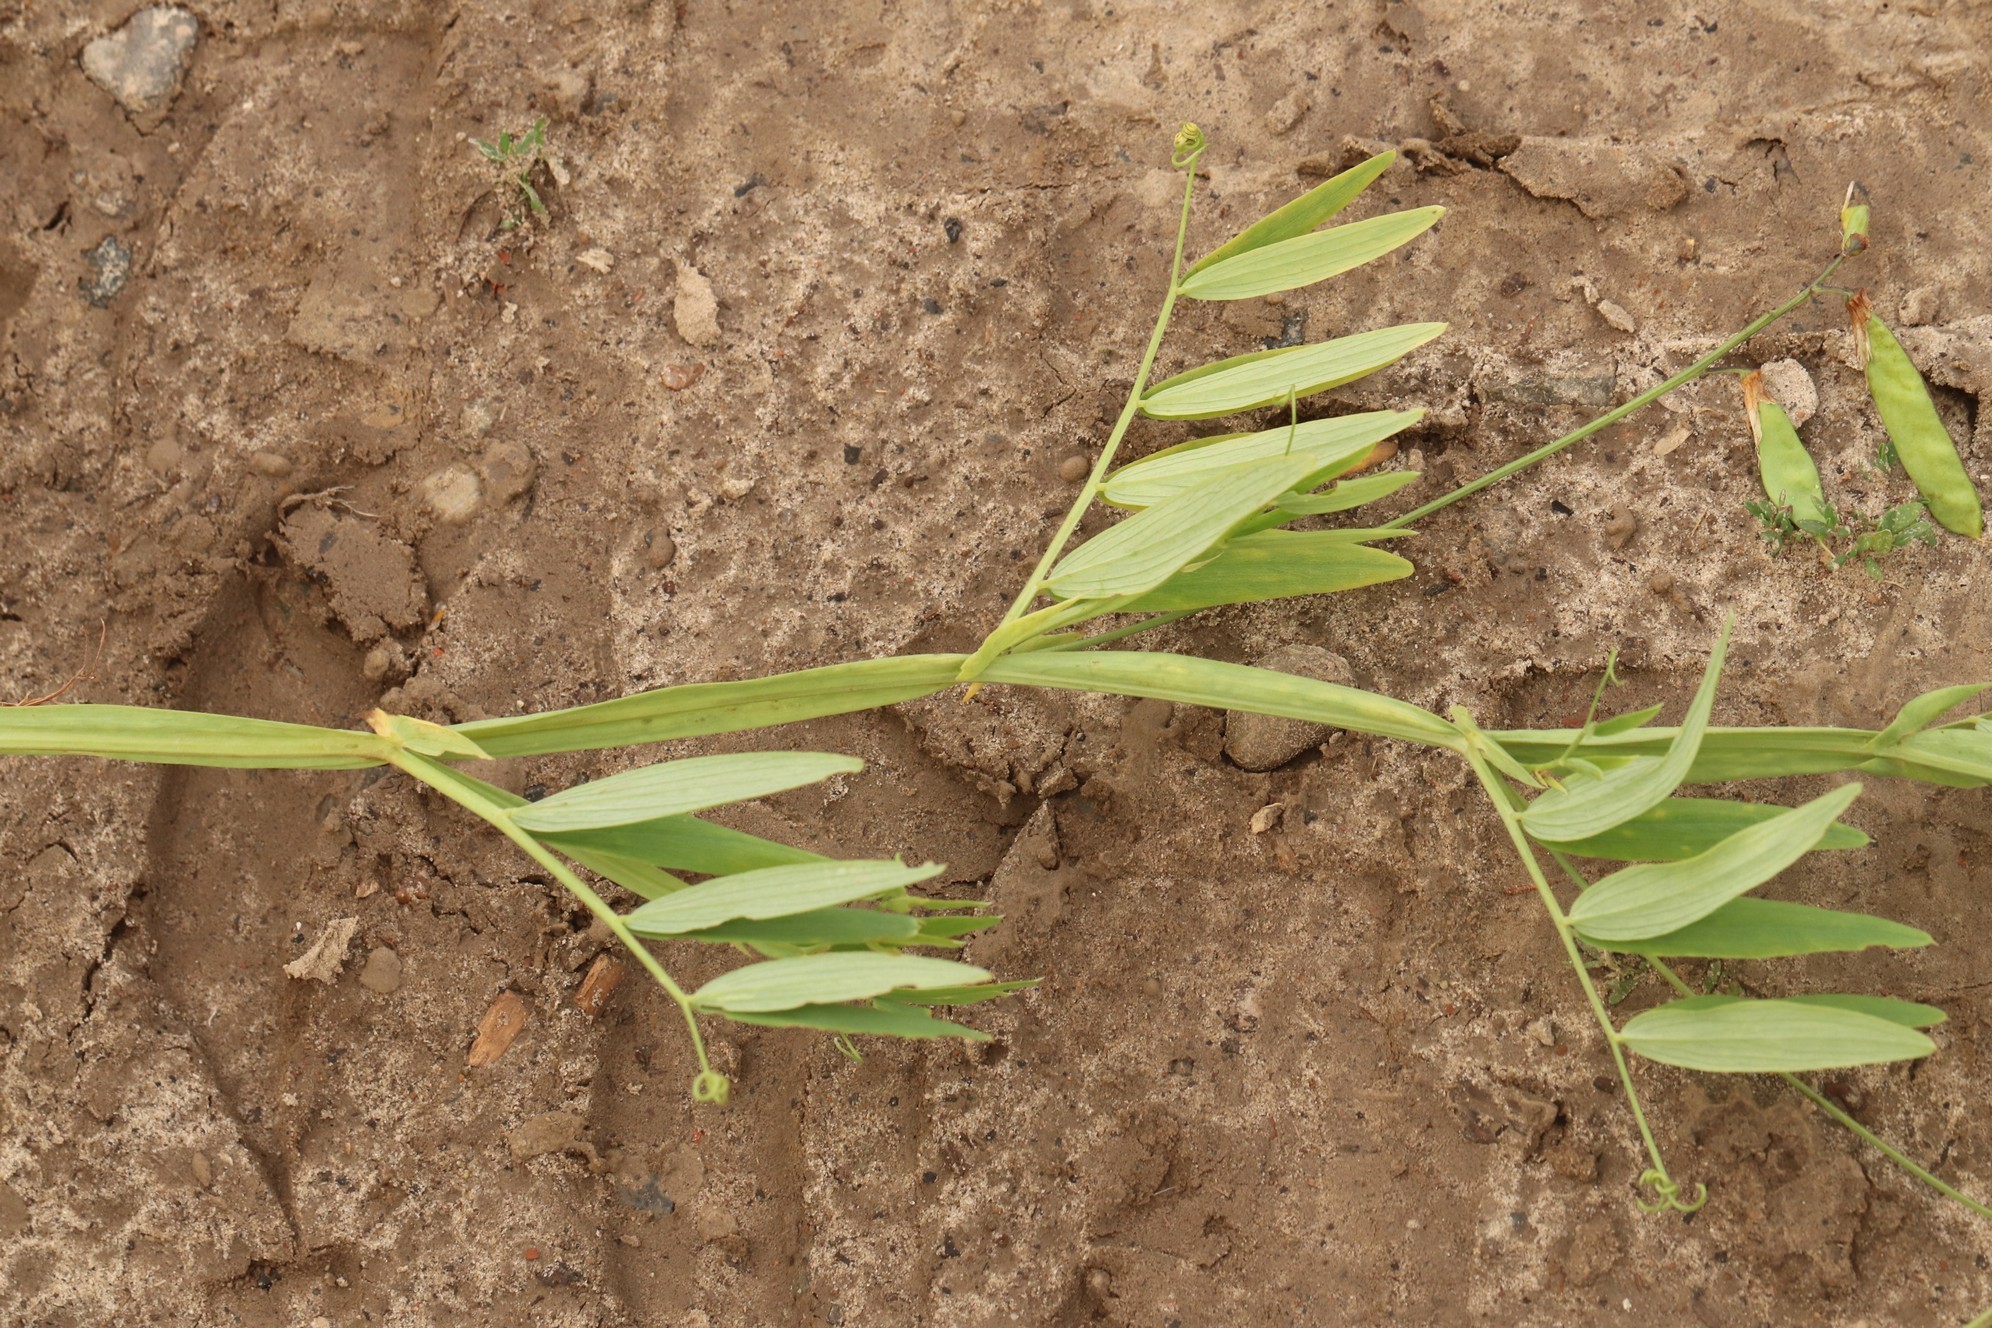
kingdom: Plantae
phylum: Tracheophyta
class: Magnoliopsida
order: Fabales
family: Fabaceae
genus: Lathyrus
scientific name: Lathyrus palustris
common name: Marsh pea
